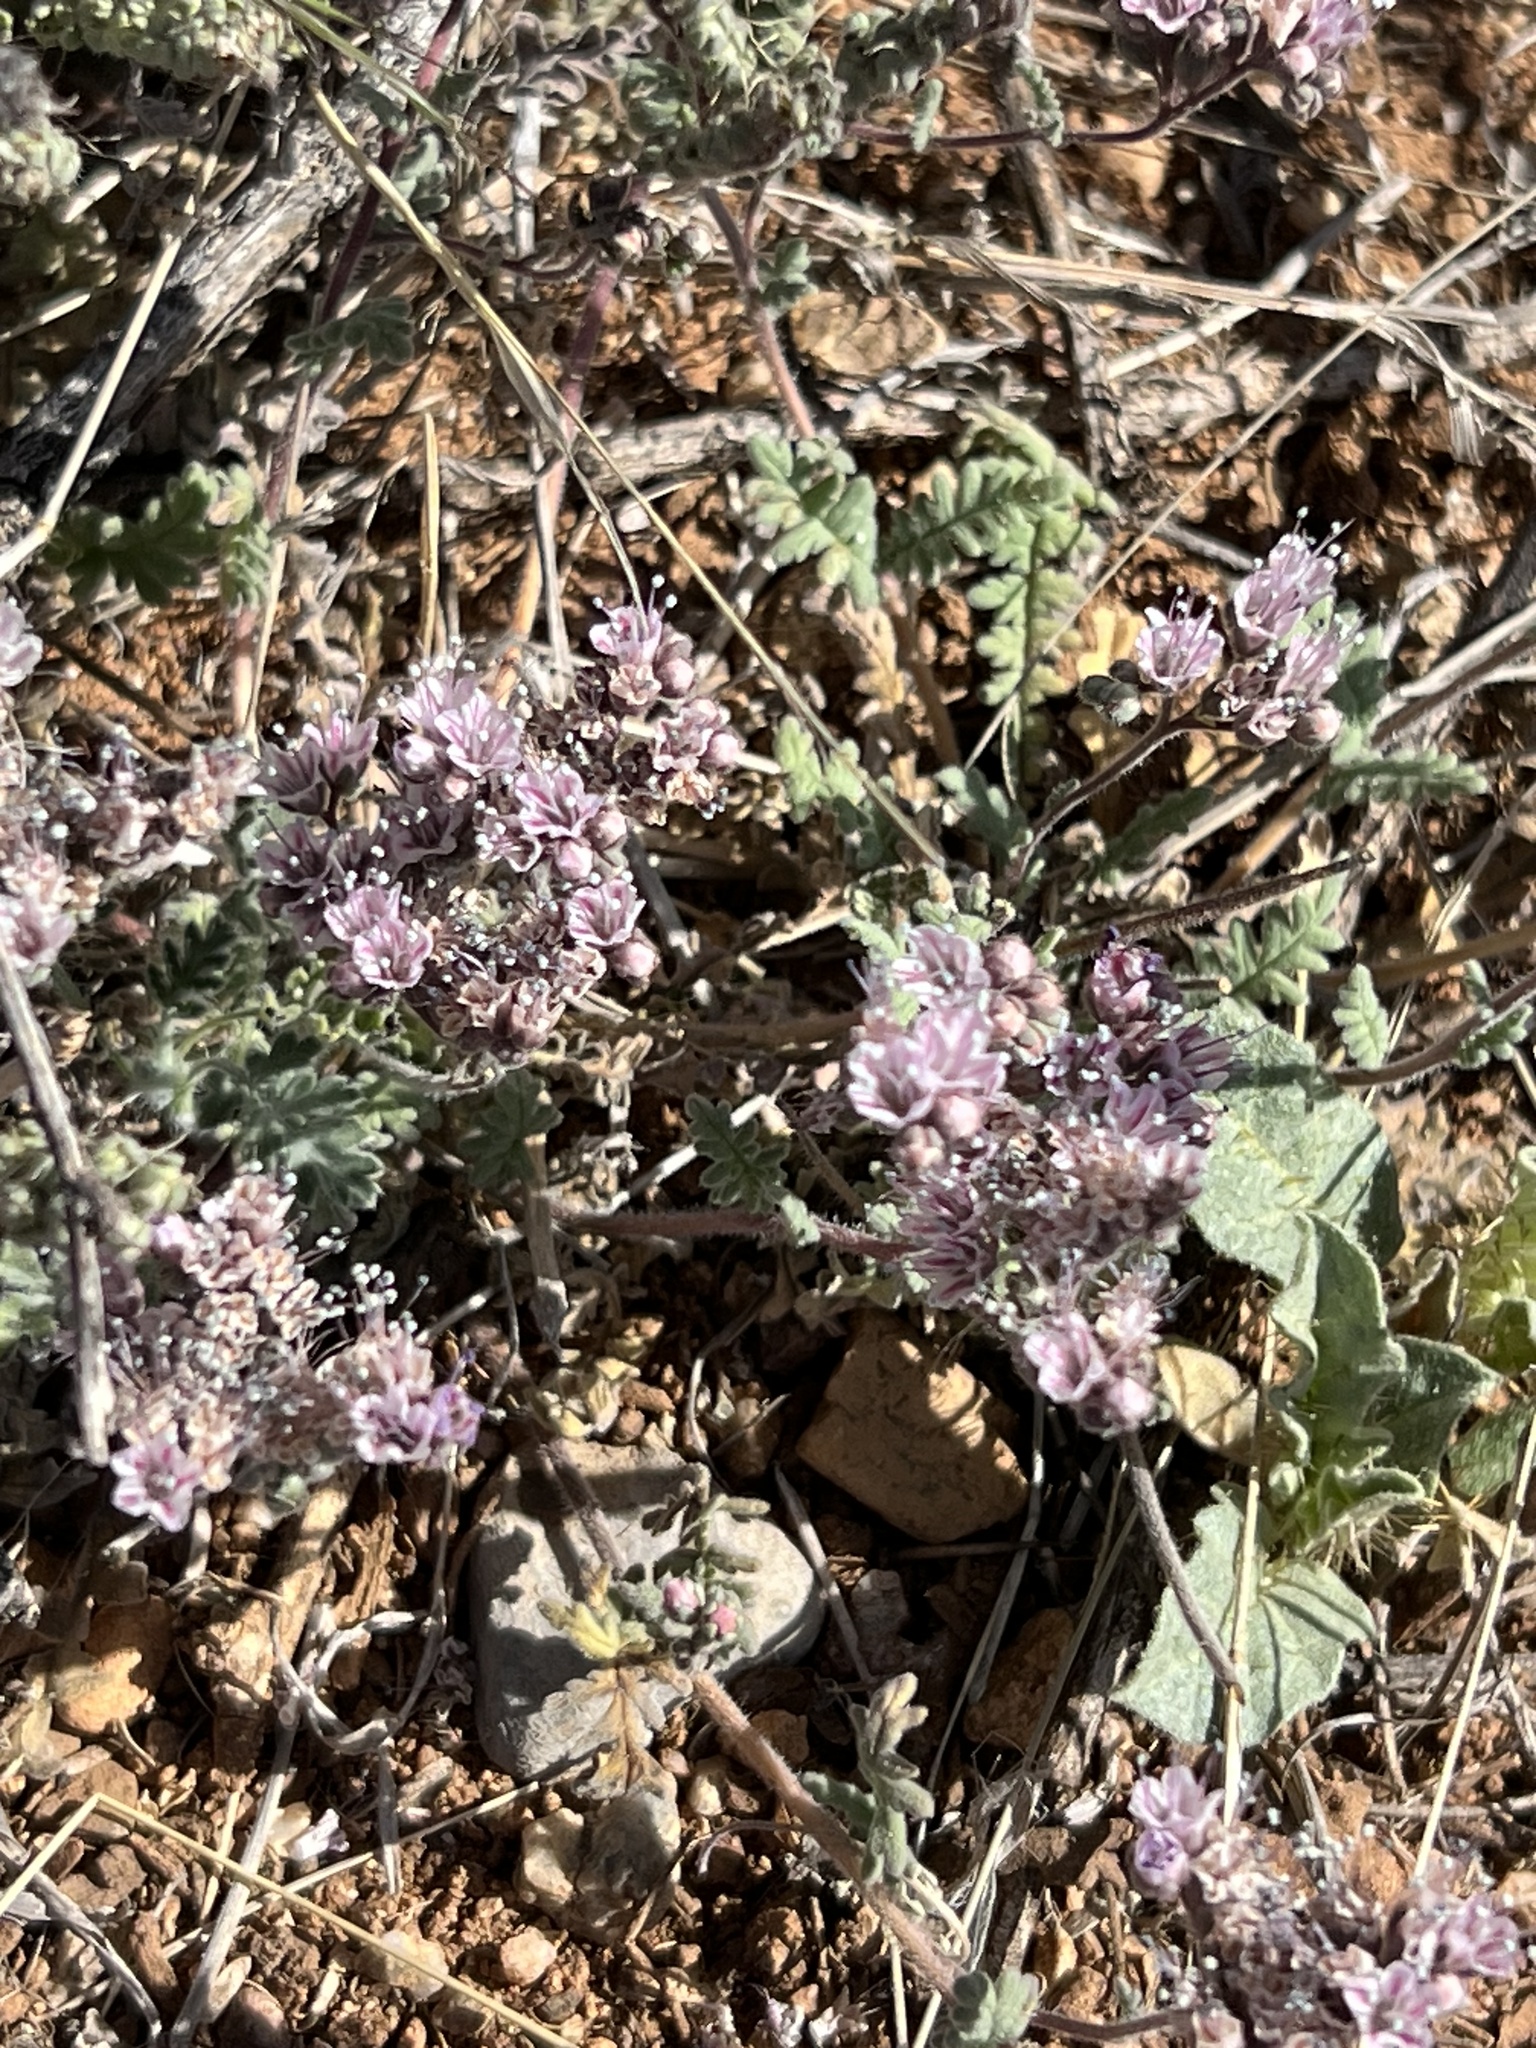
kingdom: Plantae
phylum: Tracheophyta
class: Magnoliopsida
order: Boraginales
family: Hydrophyllaceae
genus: Phacelia
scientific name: Phacelia arizonica
